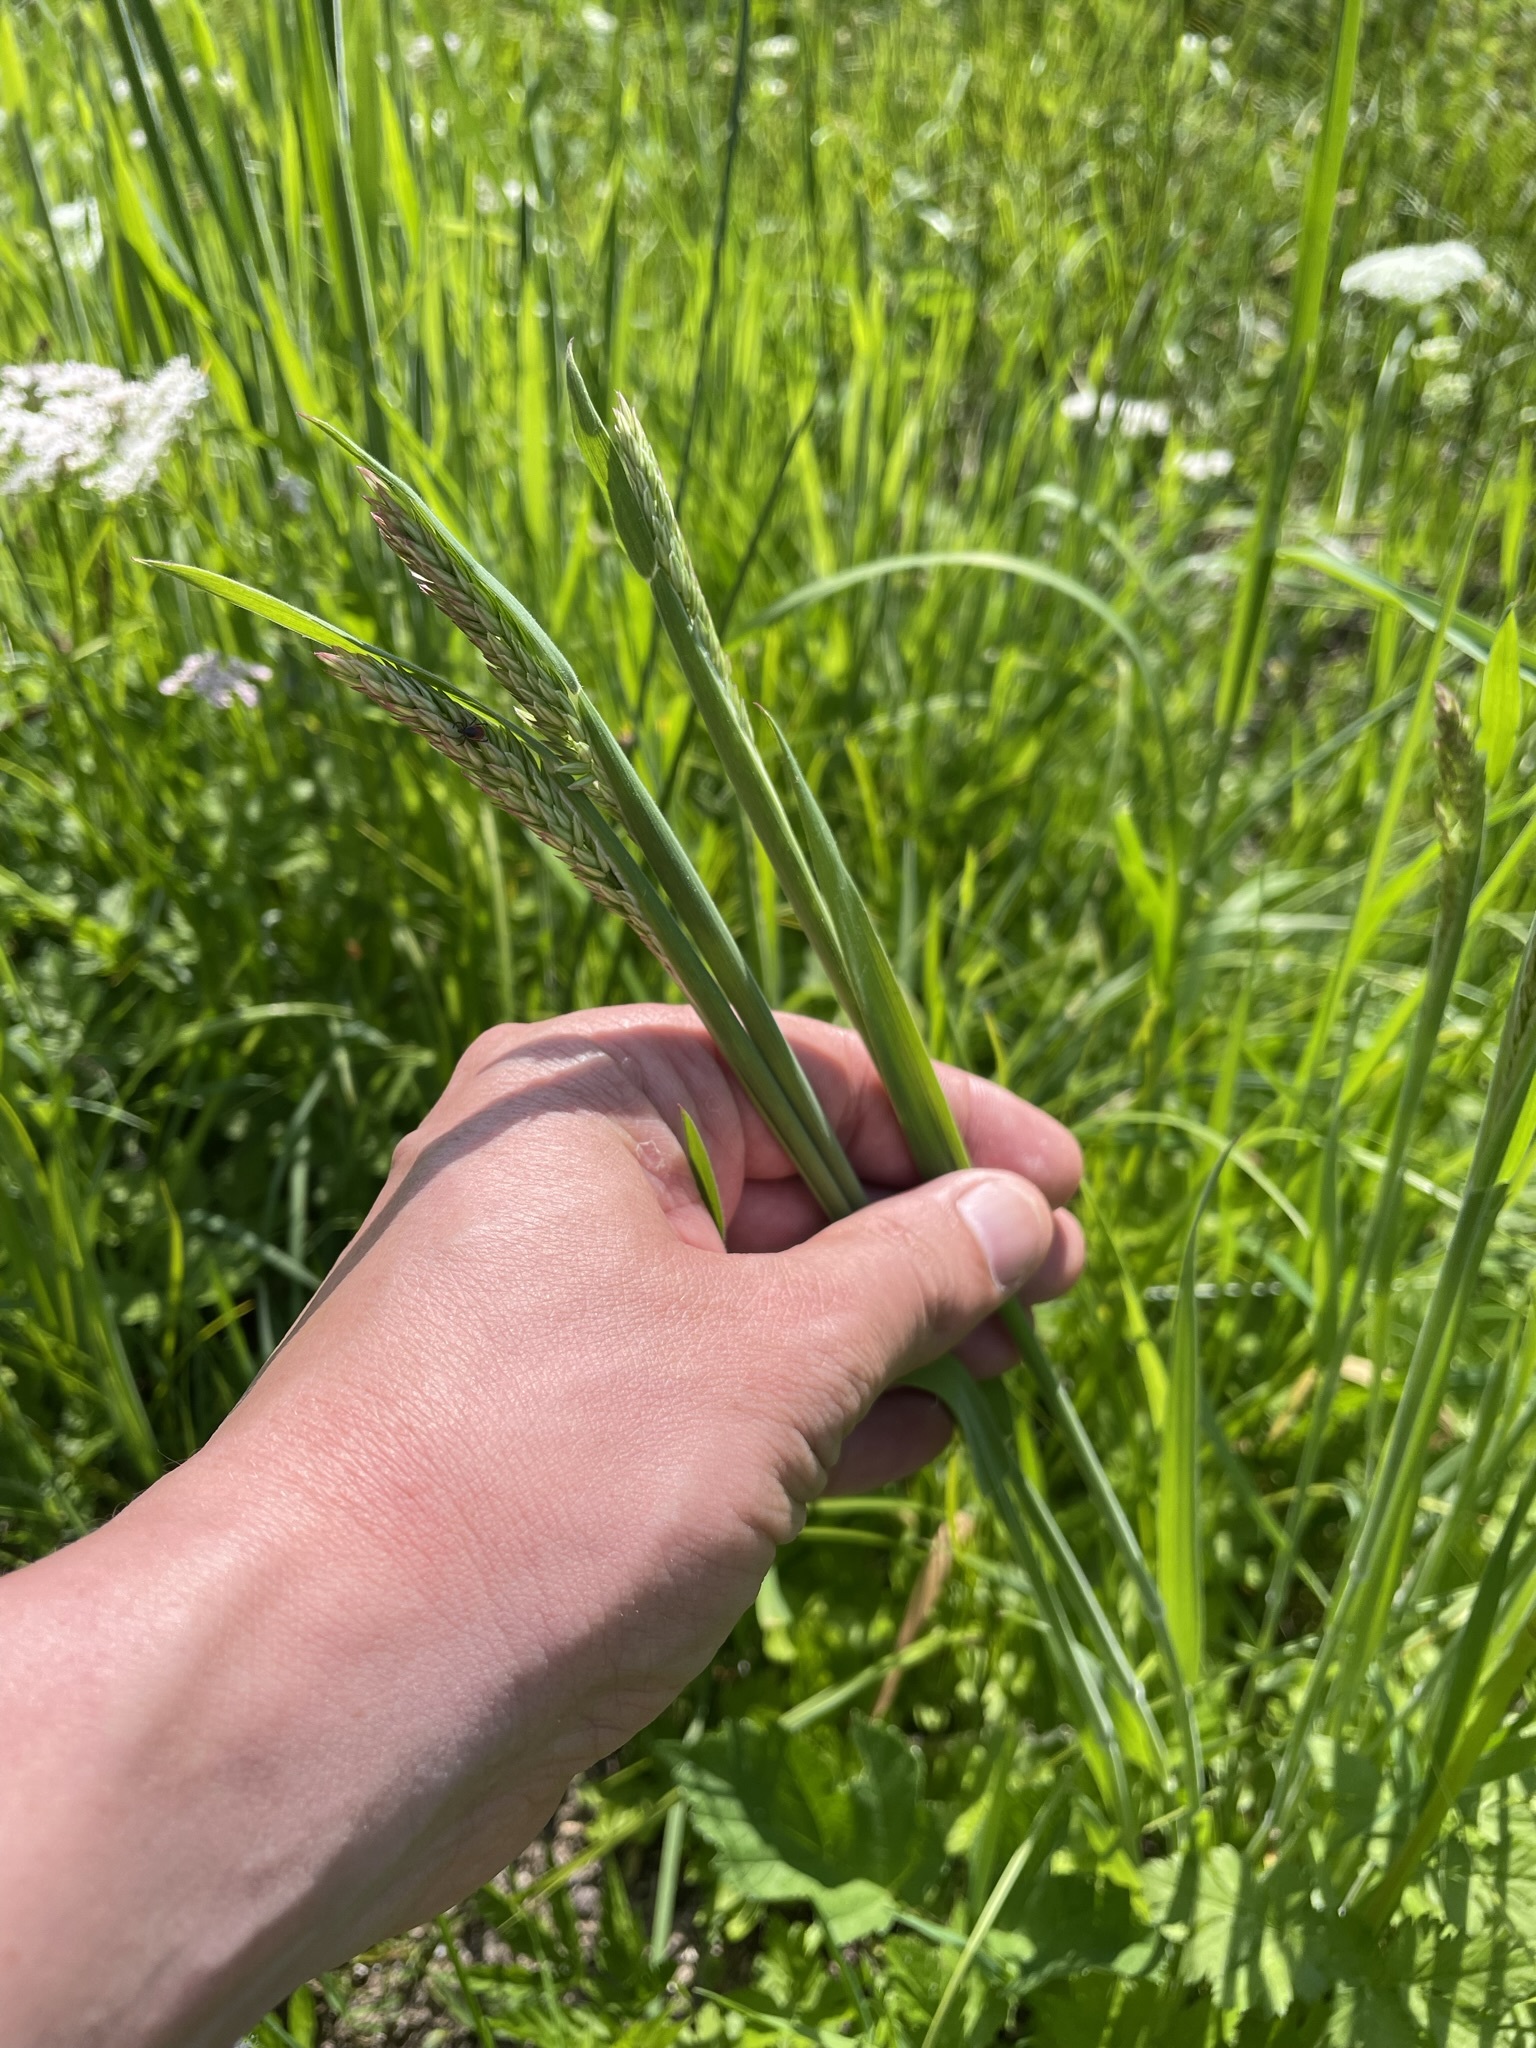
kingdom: Plantae
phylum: Tracheophyta
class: Liliopsida
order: Poales
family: Poaceae
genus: Holcus
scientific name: Holcus lanatus
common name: Yorkshire-fog
